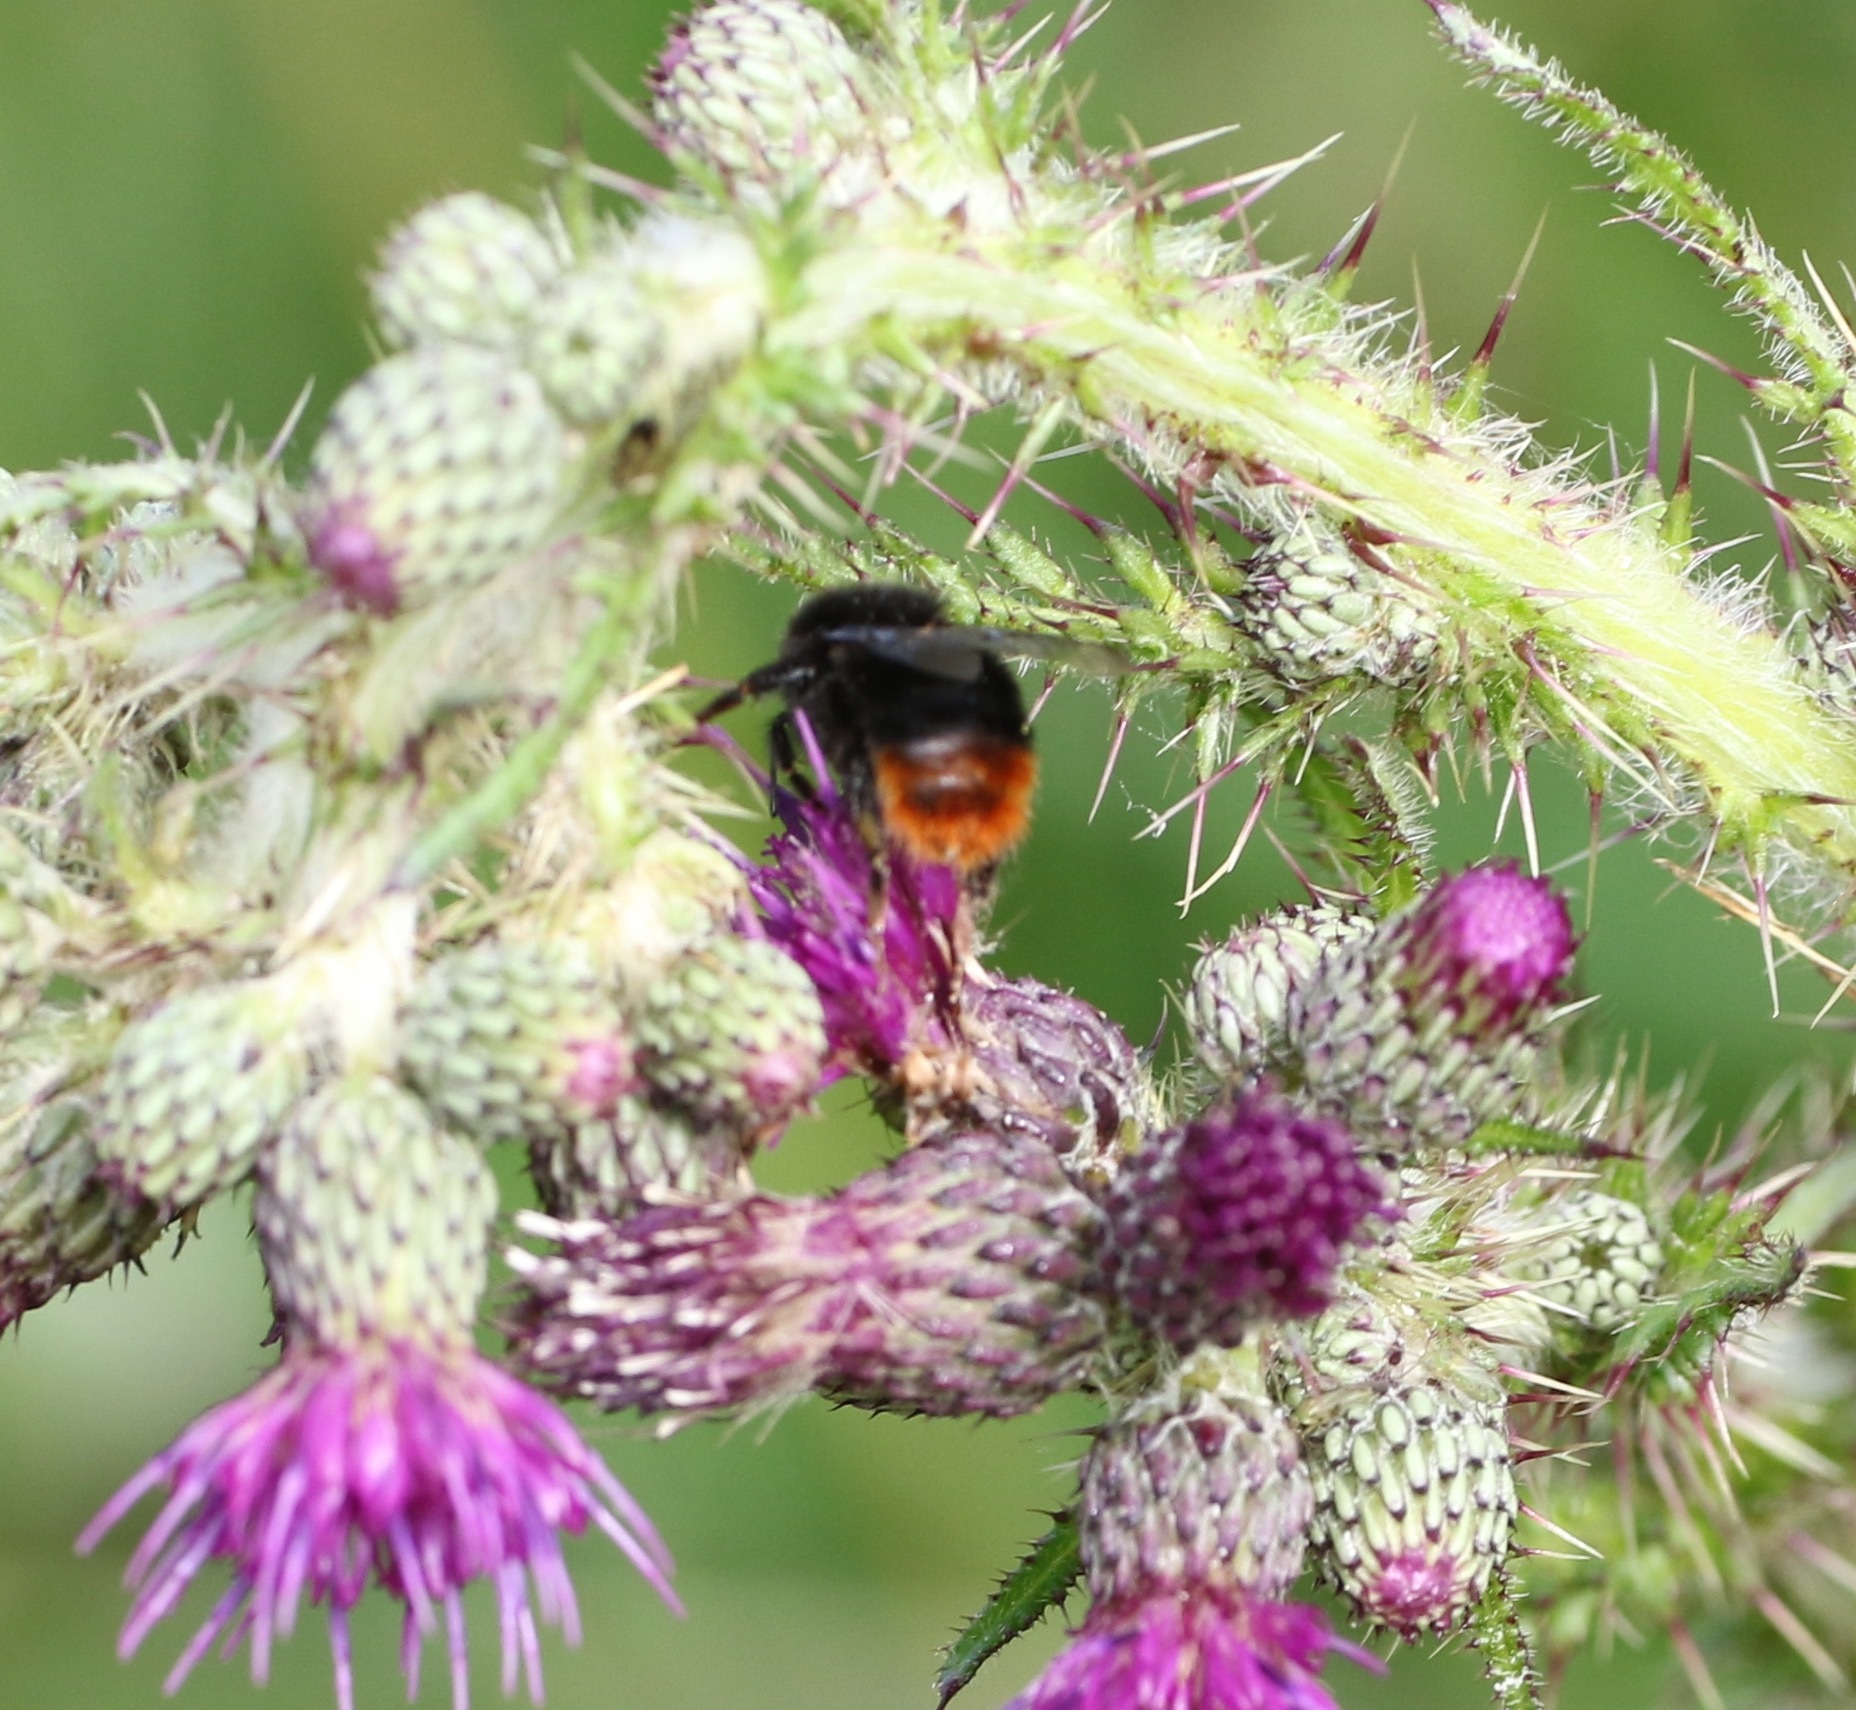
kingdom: Animalia
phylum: Arthropoda
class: Insecta
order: Hymenoptera
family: Apidae
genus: Bombus
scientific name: Bombus lapidarius
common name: Large red-tailed humble-bee
